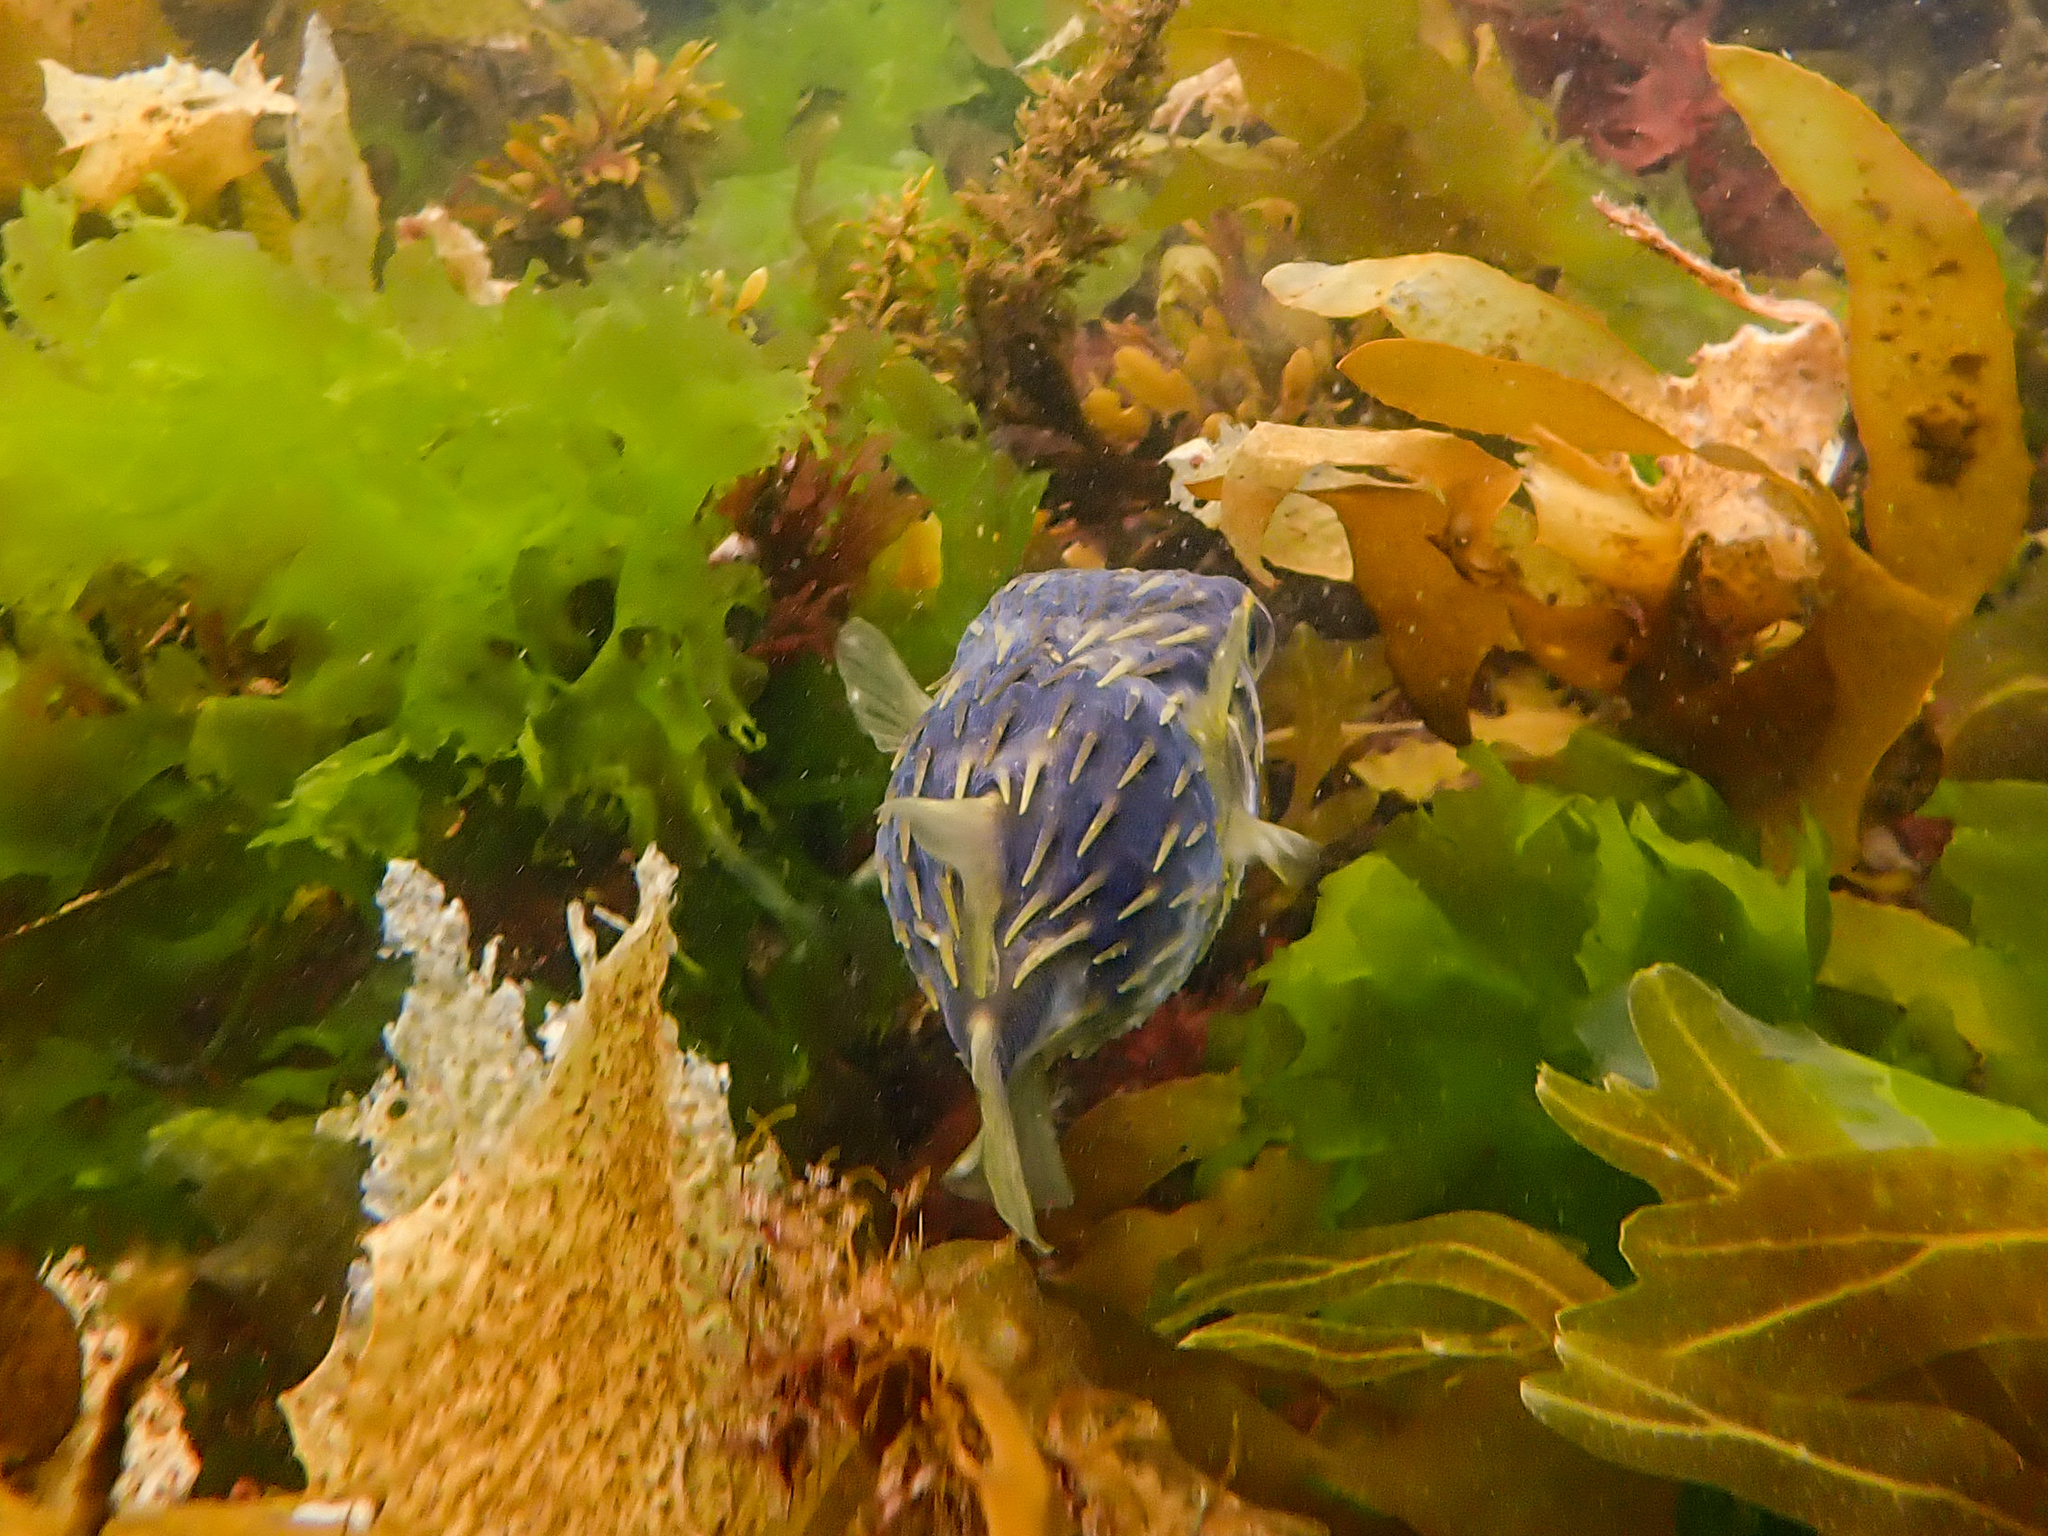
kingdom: Animalia
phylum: Chordata
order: Tetraodontiformes
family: Diodontidae
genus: Diodon
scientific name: Diodon nicthemerus
